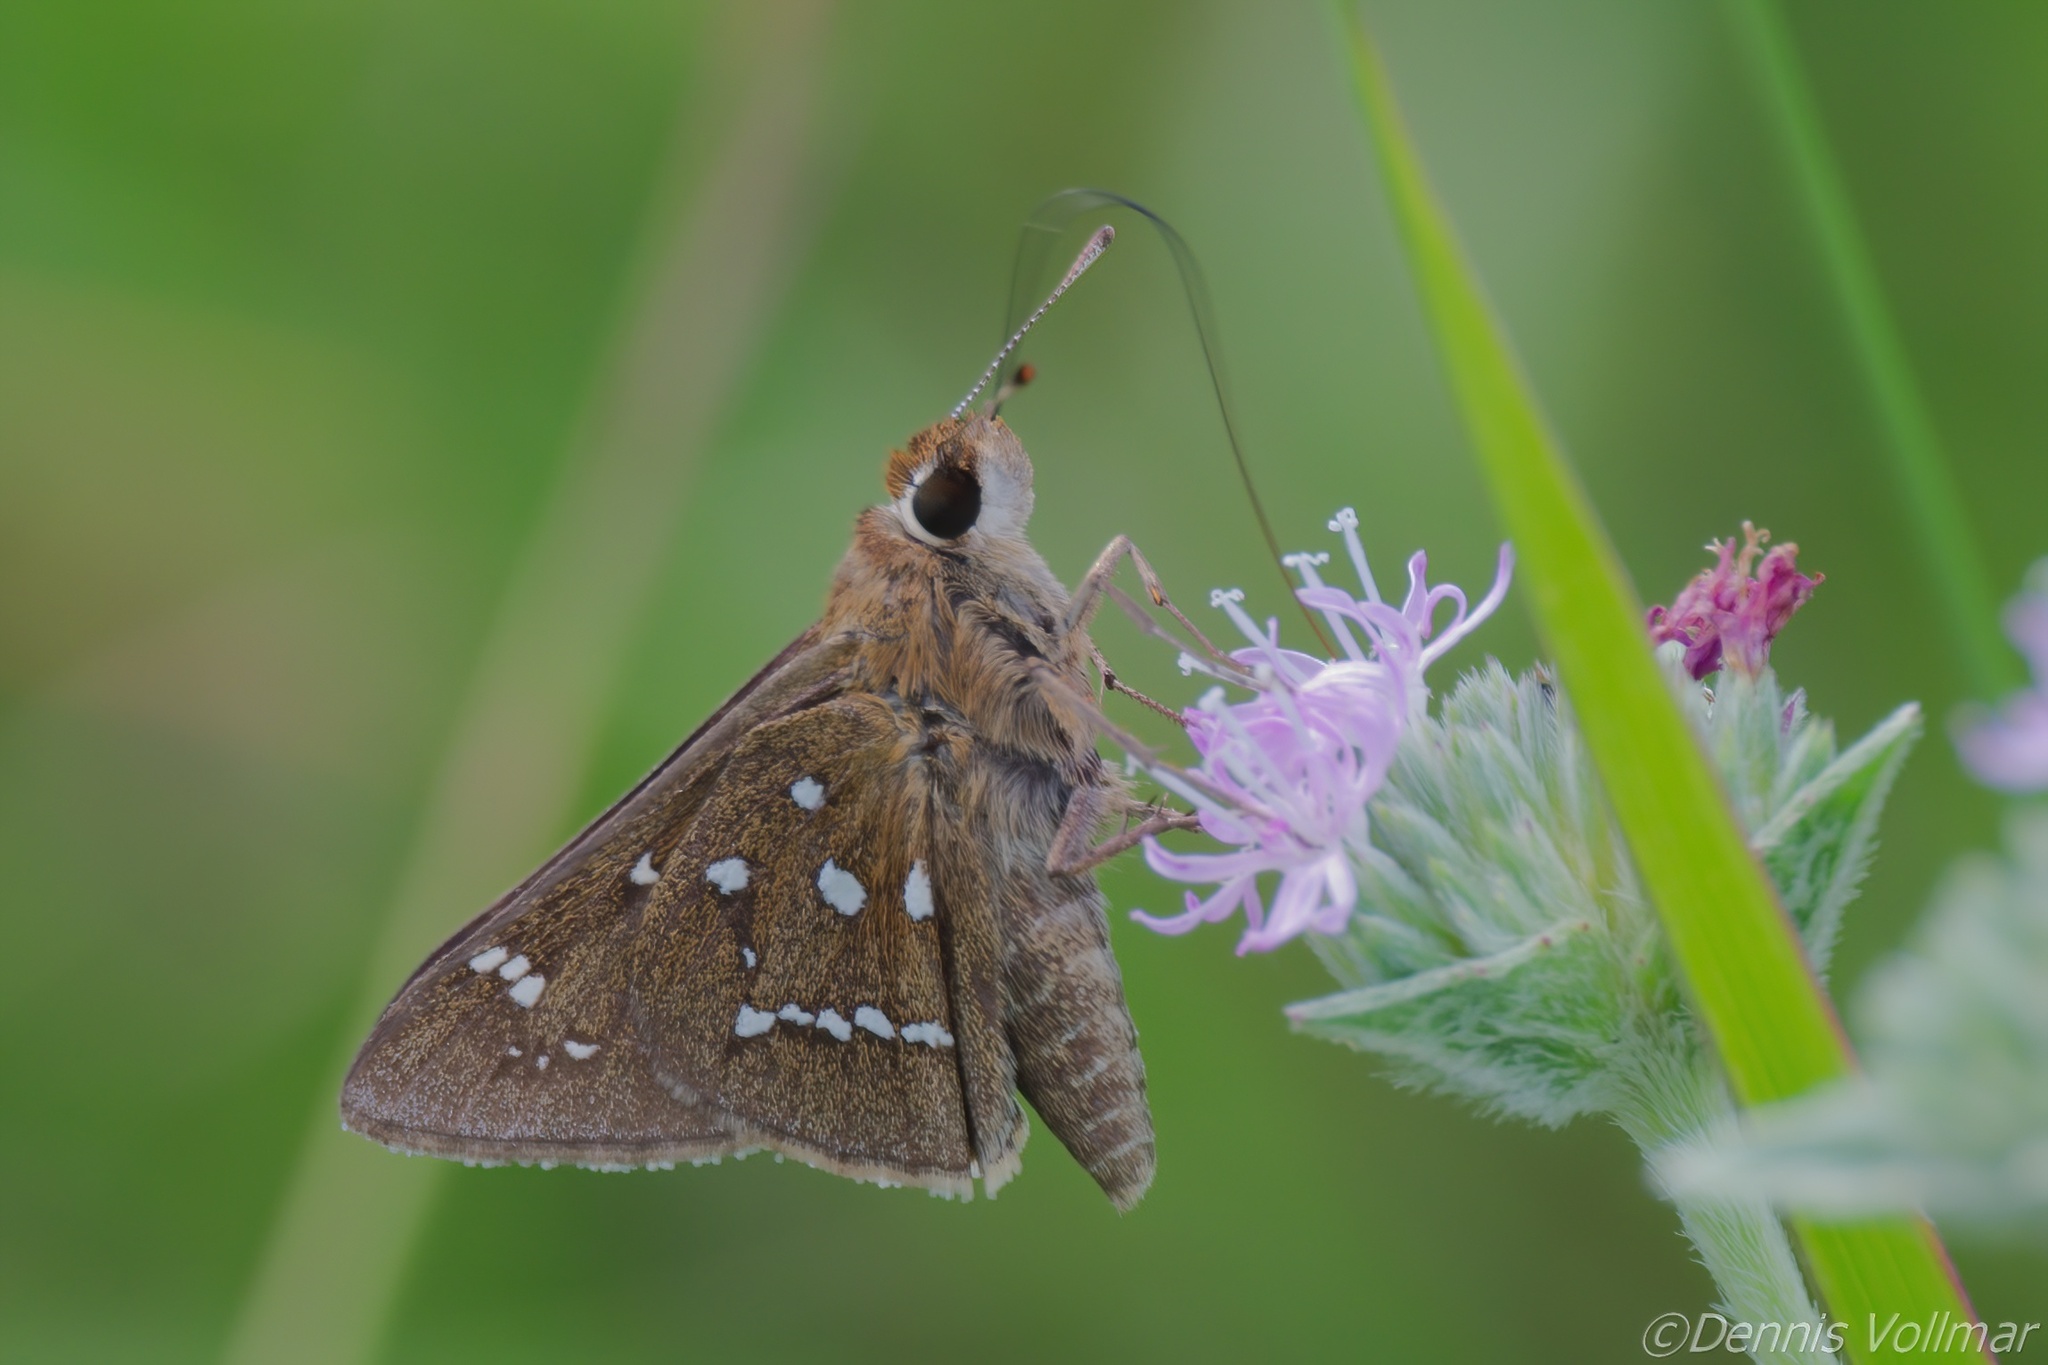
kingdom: Animalia
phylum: Arthropoda
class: Insecta
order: Lepidoptera
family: Hesperiidae
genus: Atrytonopsis
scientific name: Atrytonopsis loammi
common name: Loammi skipper
